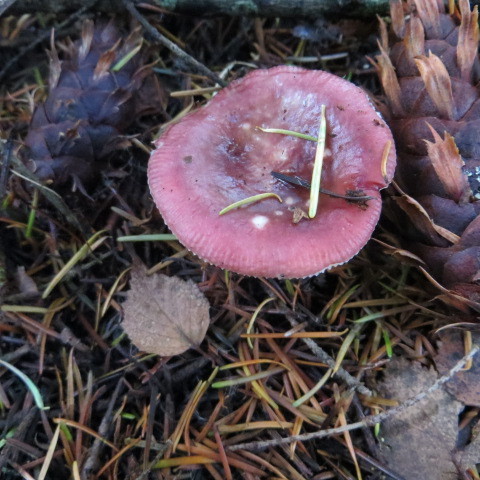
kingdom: Fungi
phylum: Basidiomycota
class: Agaricomycetes
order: Russulales
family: Russulaceae
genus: Russula
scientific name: Russula nitida
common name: Purple swamp brittlegill
